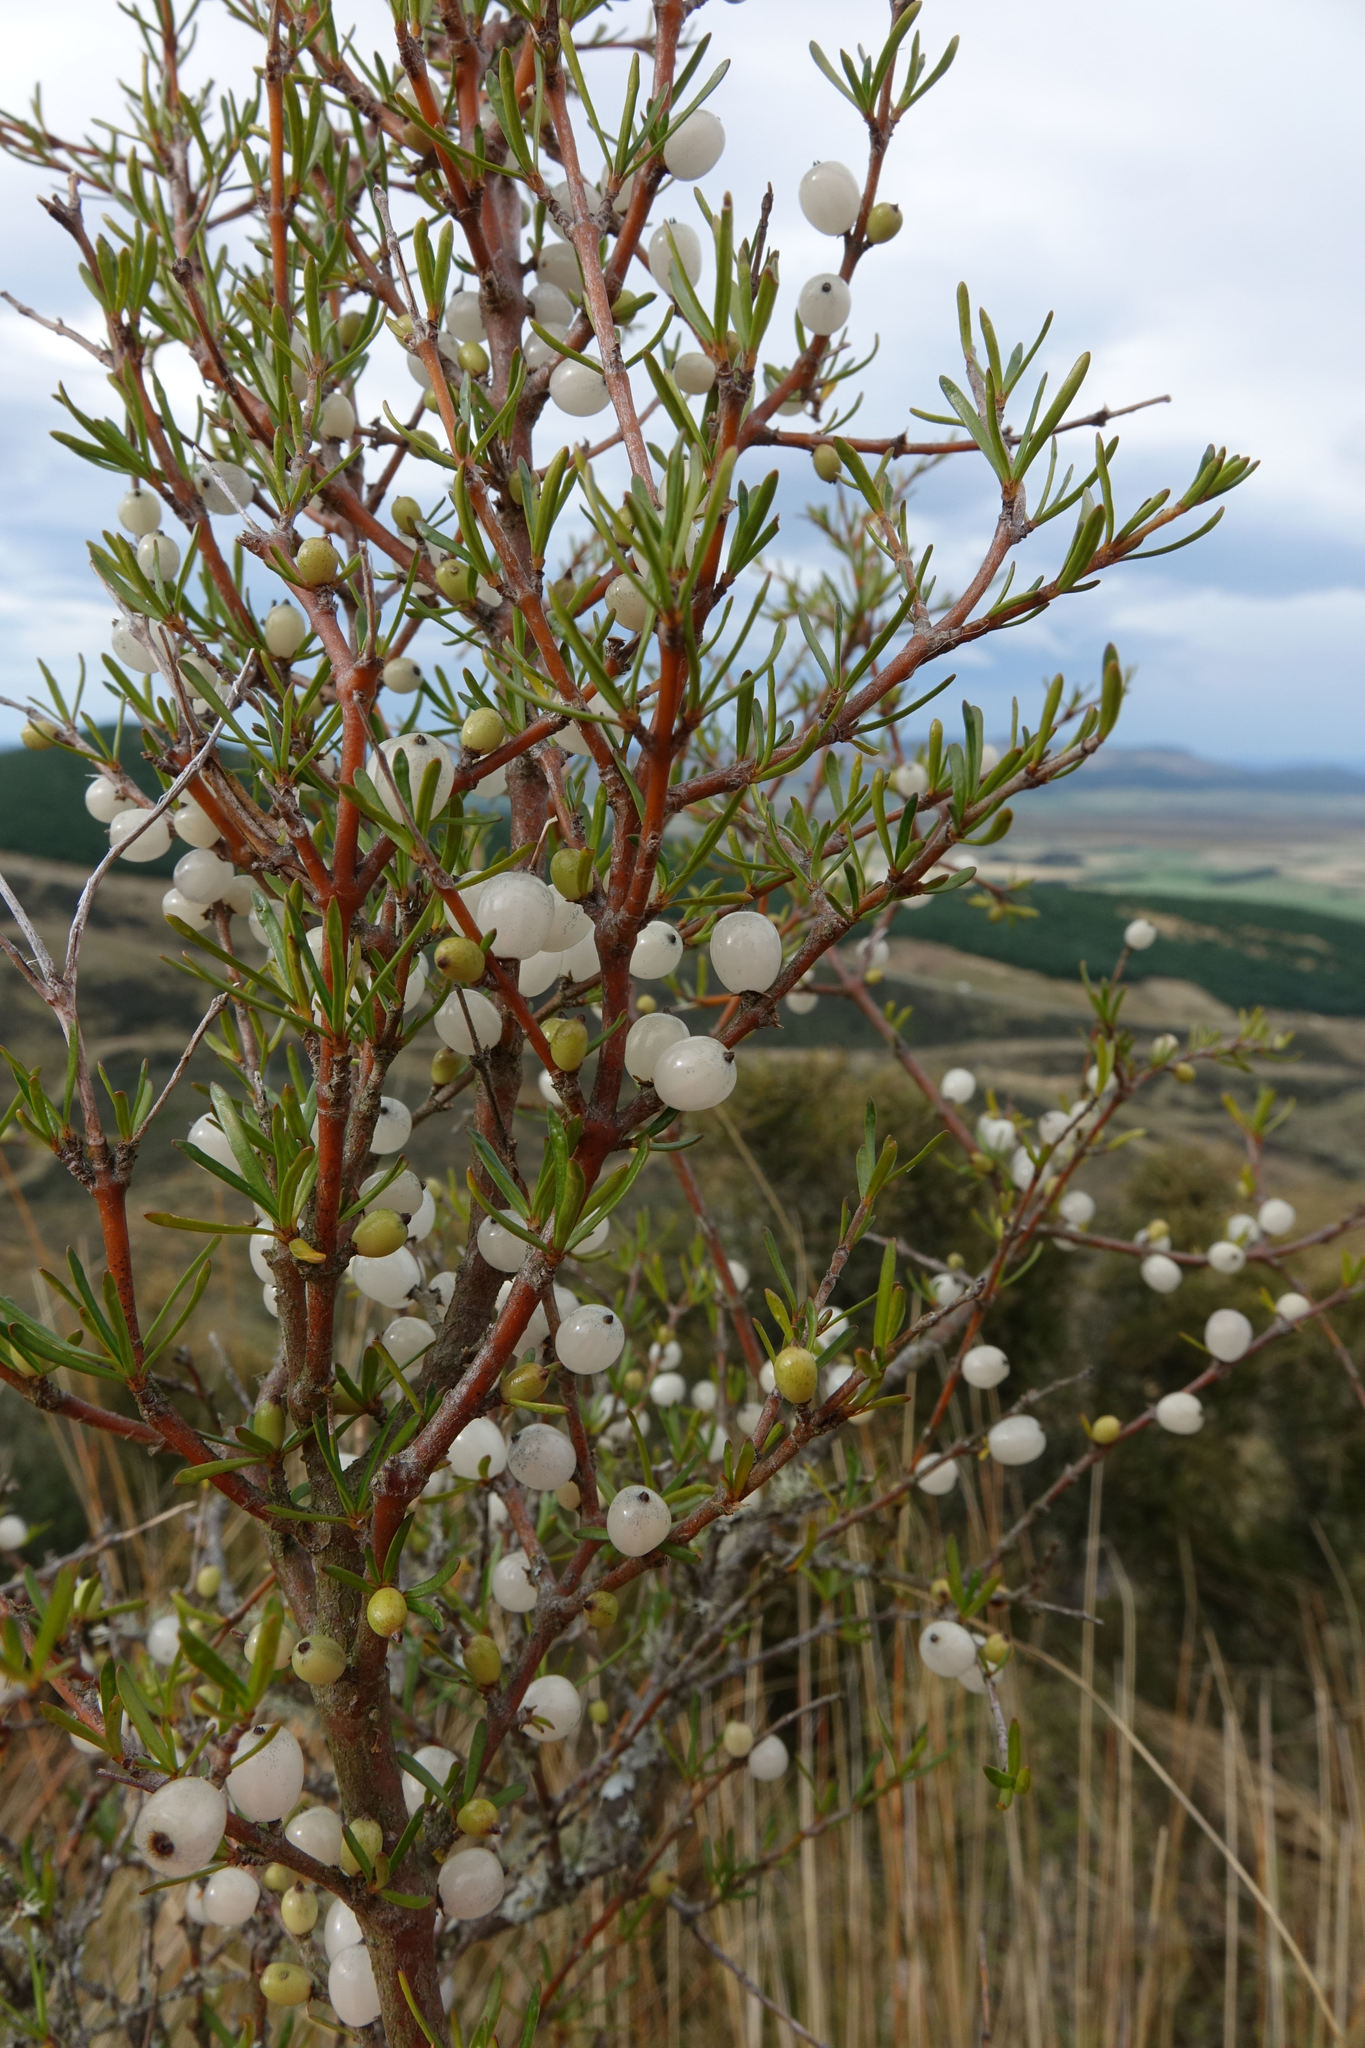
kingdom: Plantae
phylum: Tracheophyta
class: Magnoliopsida
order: Gentianales
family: Rubiaceae
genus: Coprosma
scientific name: Coprosma rugosa
